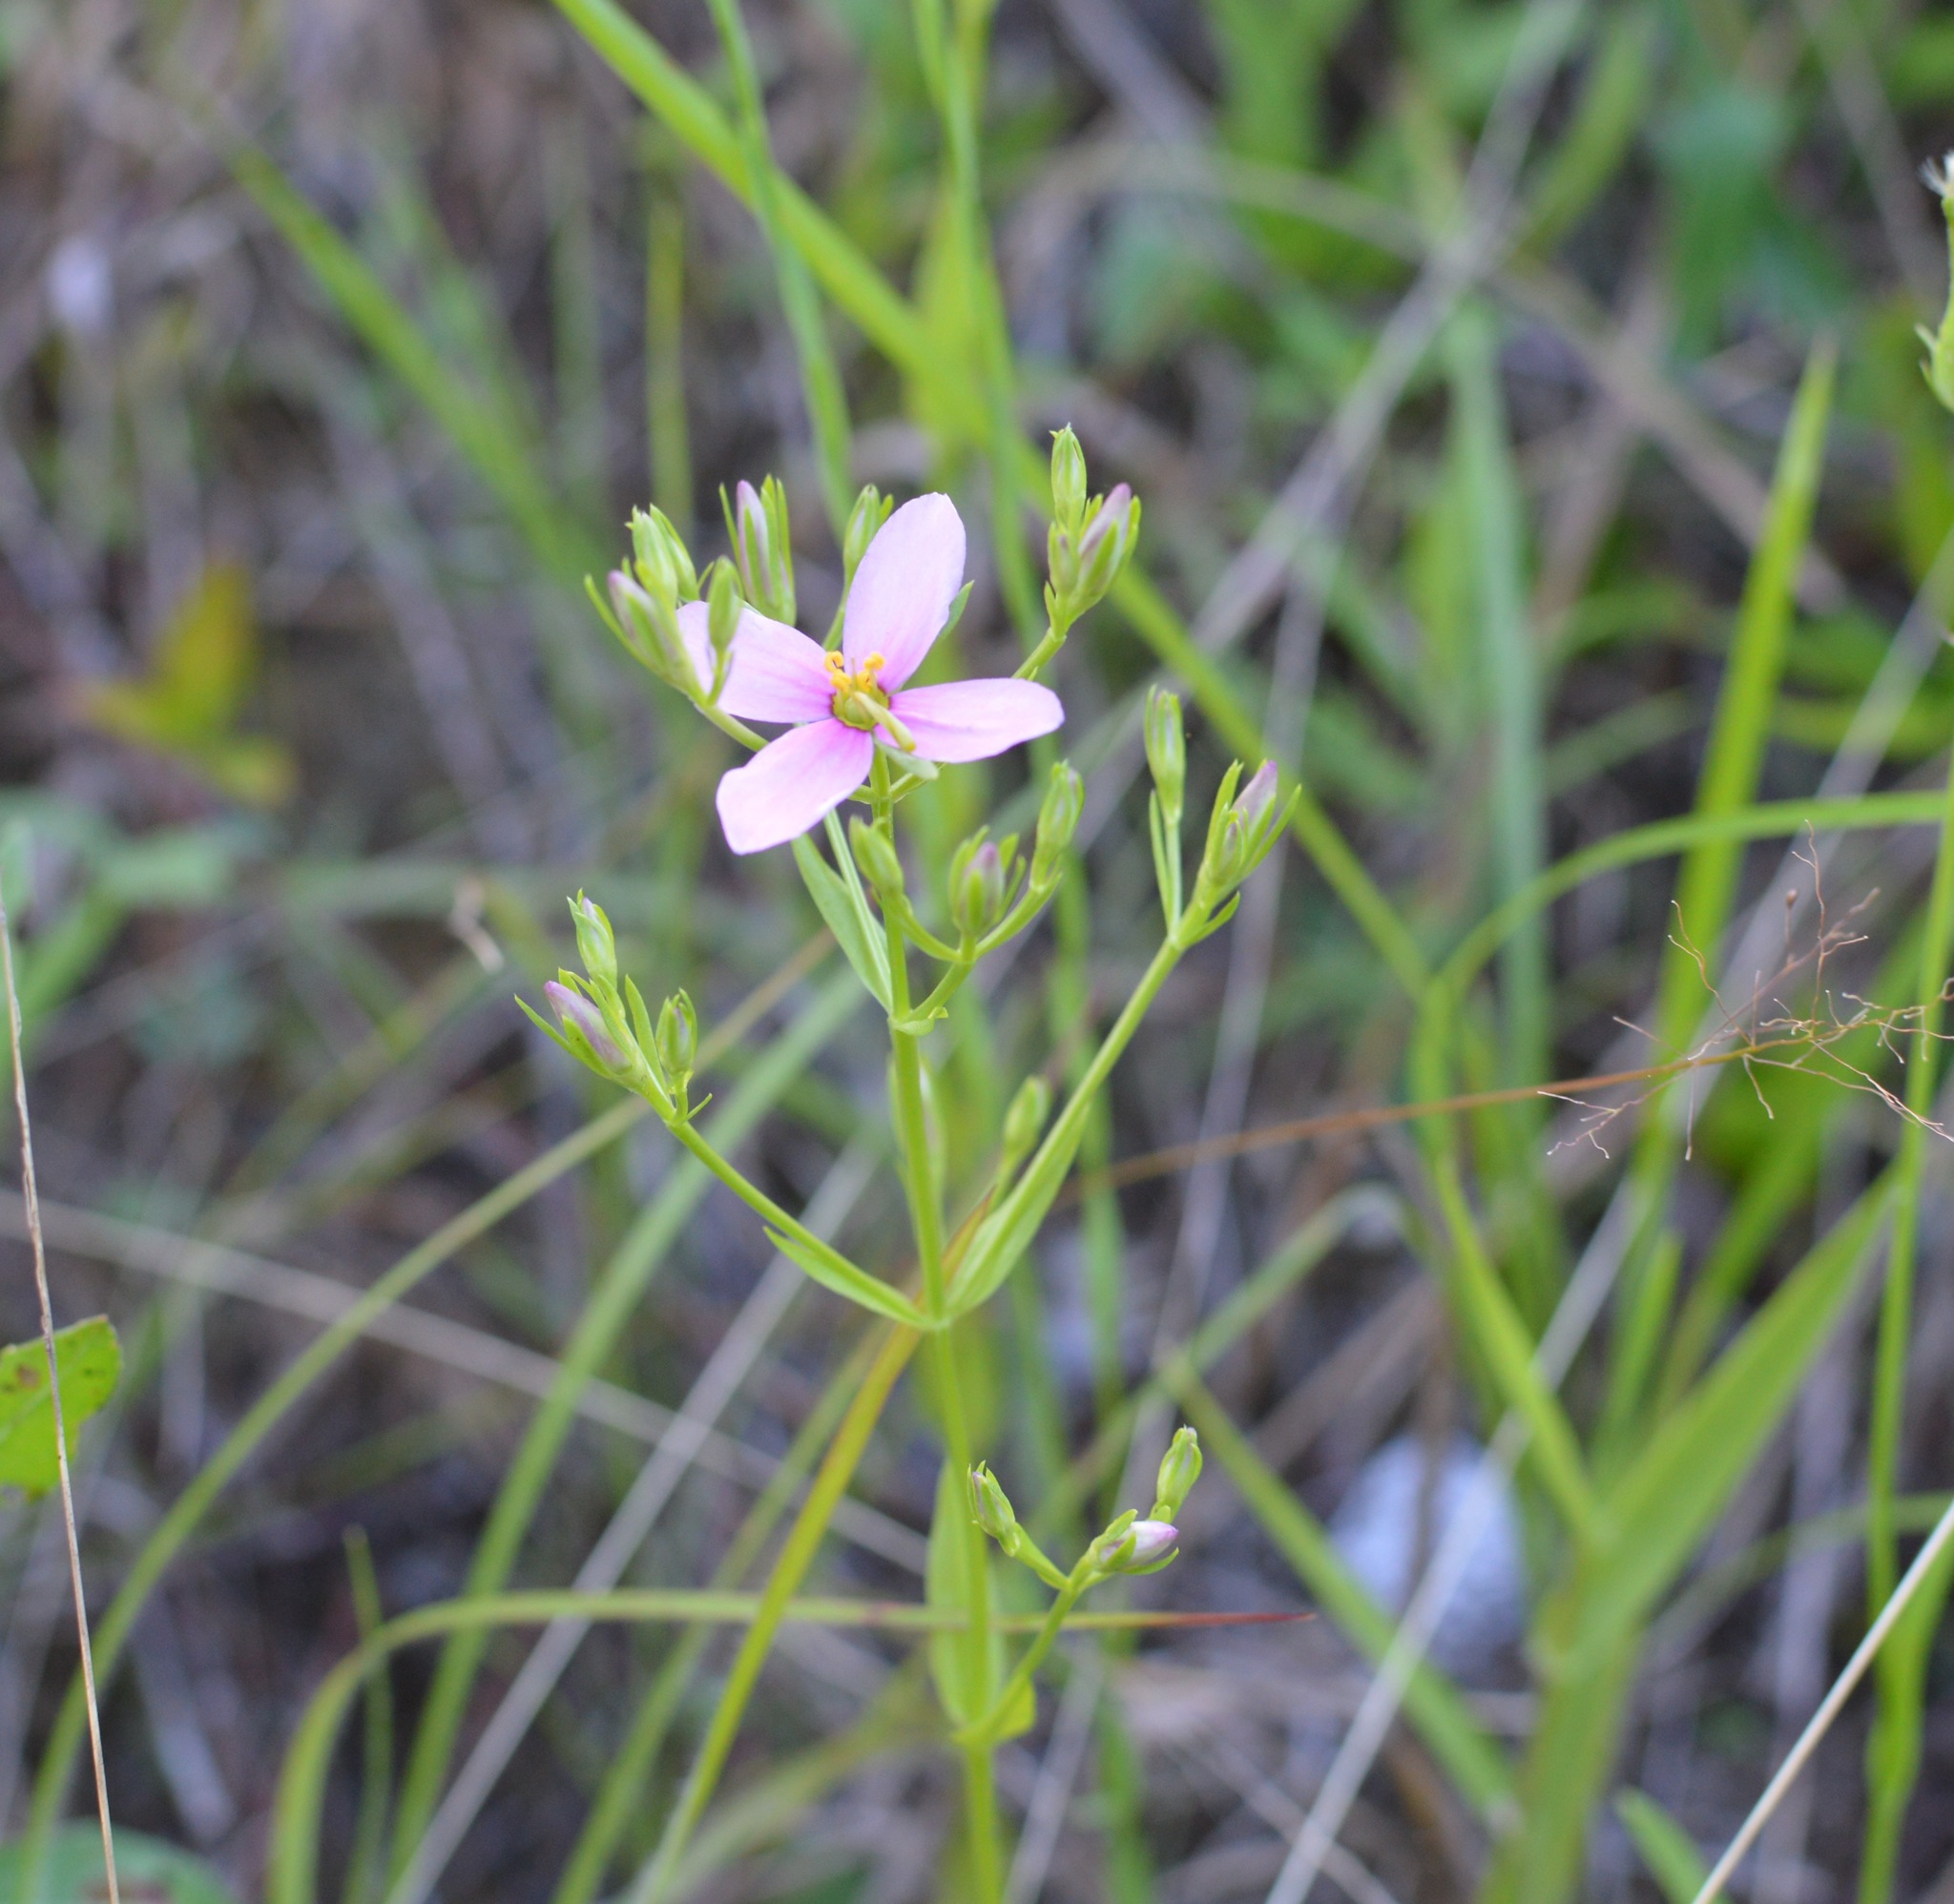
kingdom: Plantae
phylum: Tracheophyta
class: Magnoliopsida
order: Gentianales
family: Gentianaceae
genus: Sabatia
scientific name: Sabatia brachiata
